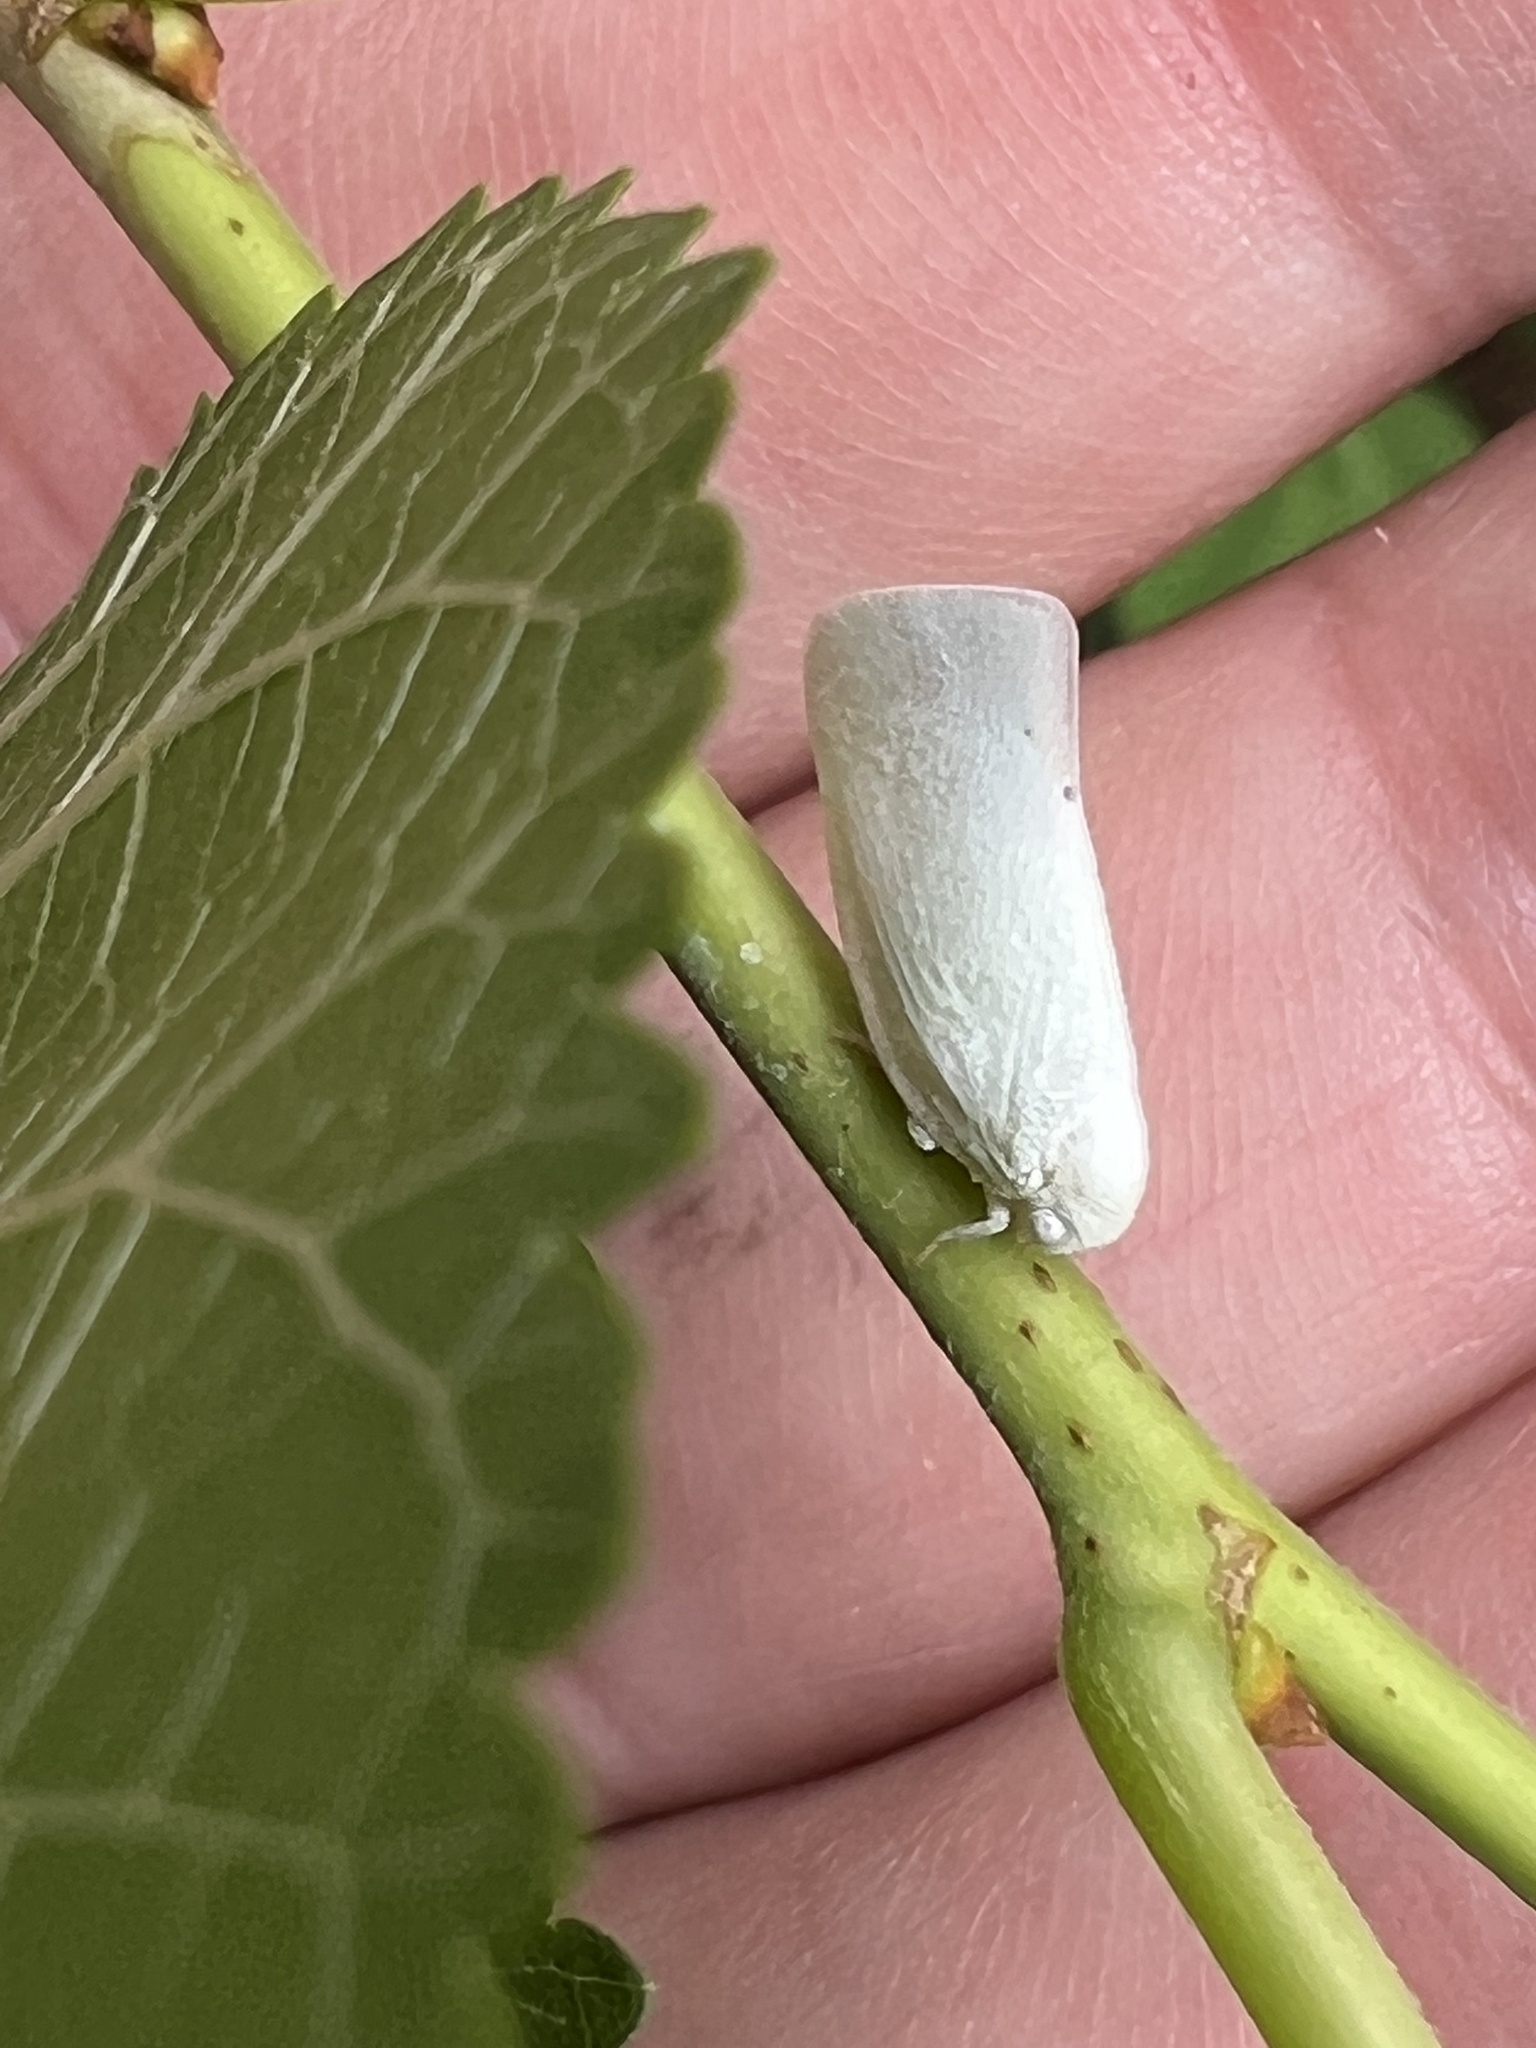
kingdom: Animalia
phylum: Arthropoda
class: Insecta
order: Hemiptera
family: Flatidae
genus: Flatormenis
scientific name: Flatormenis proxima
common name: Northern flatid planthopper
